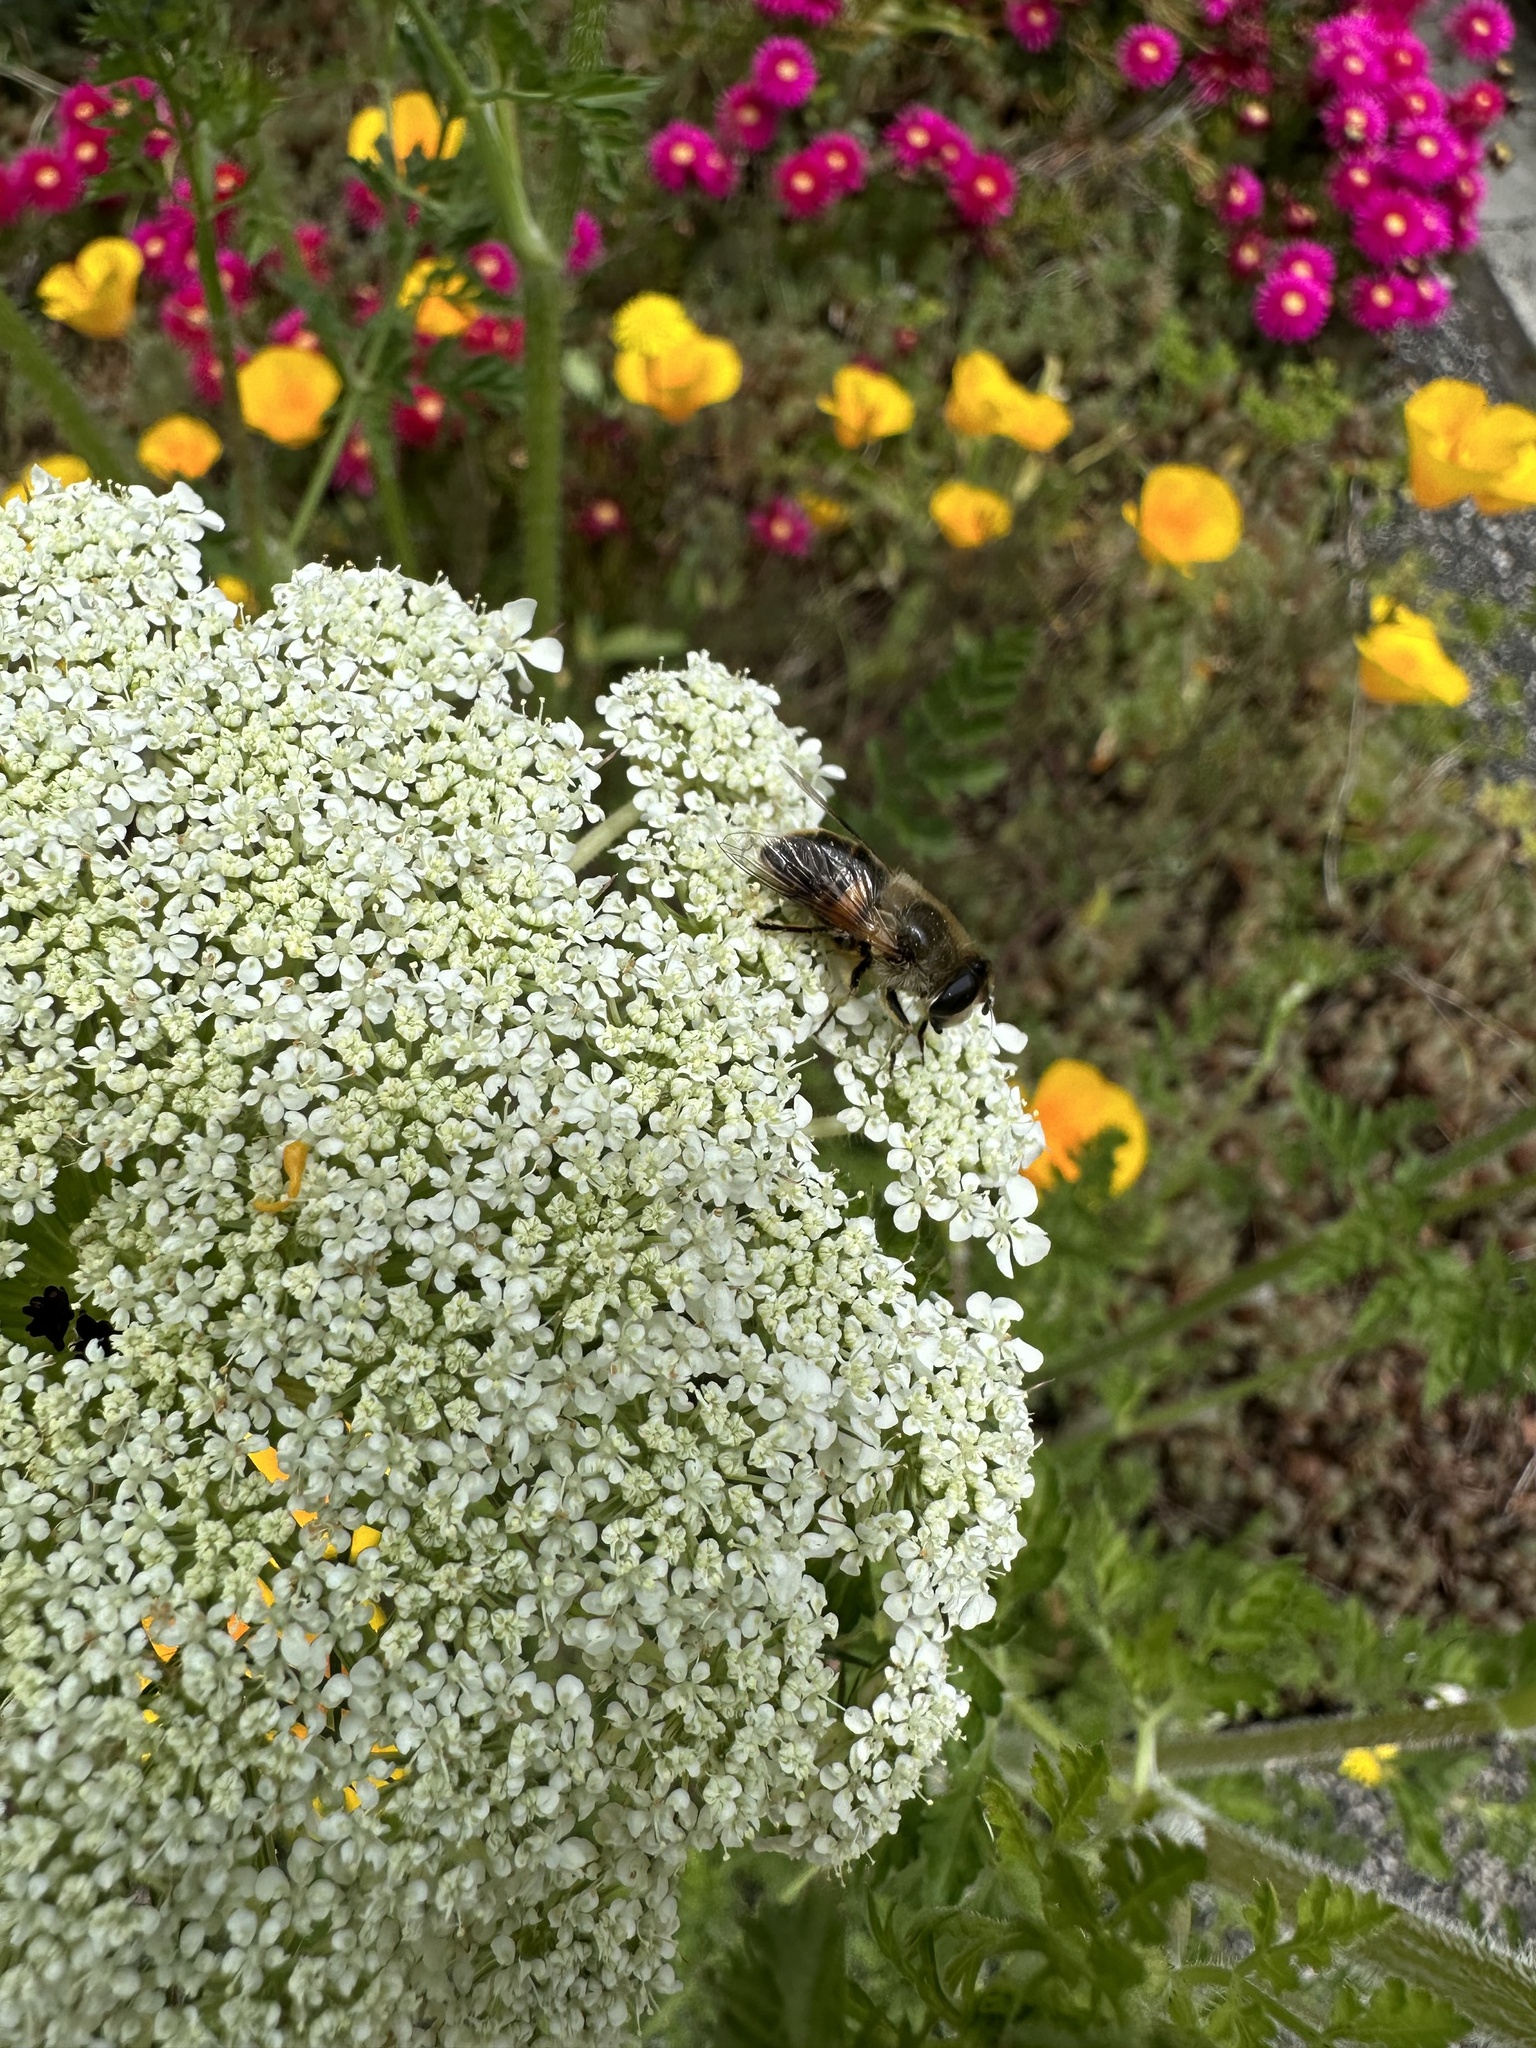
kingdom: Animalia
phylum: Arthropoda
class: Insecta
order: Diptera
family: Syrphidae
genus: Eristalis
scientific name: Eristalis tenax
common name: Drone fly
